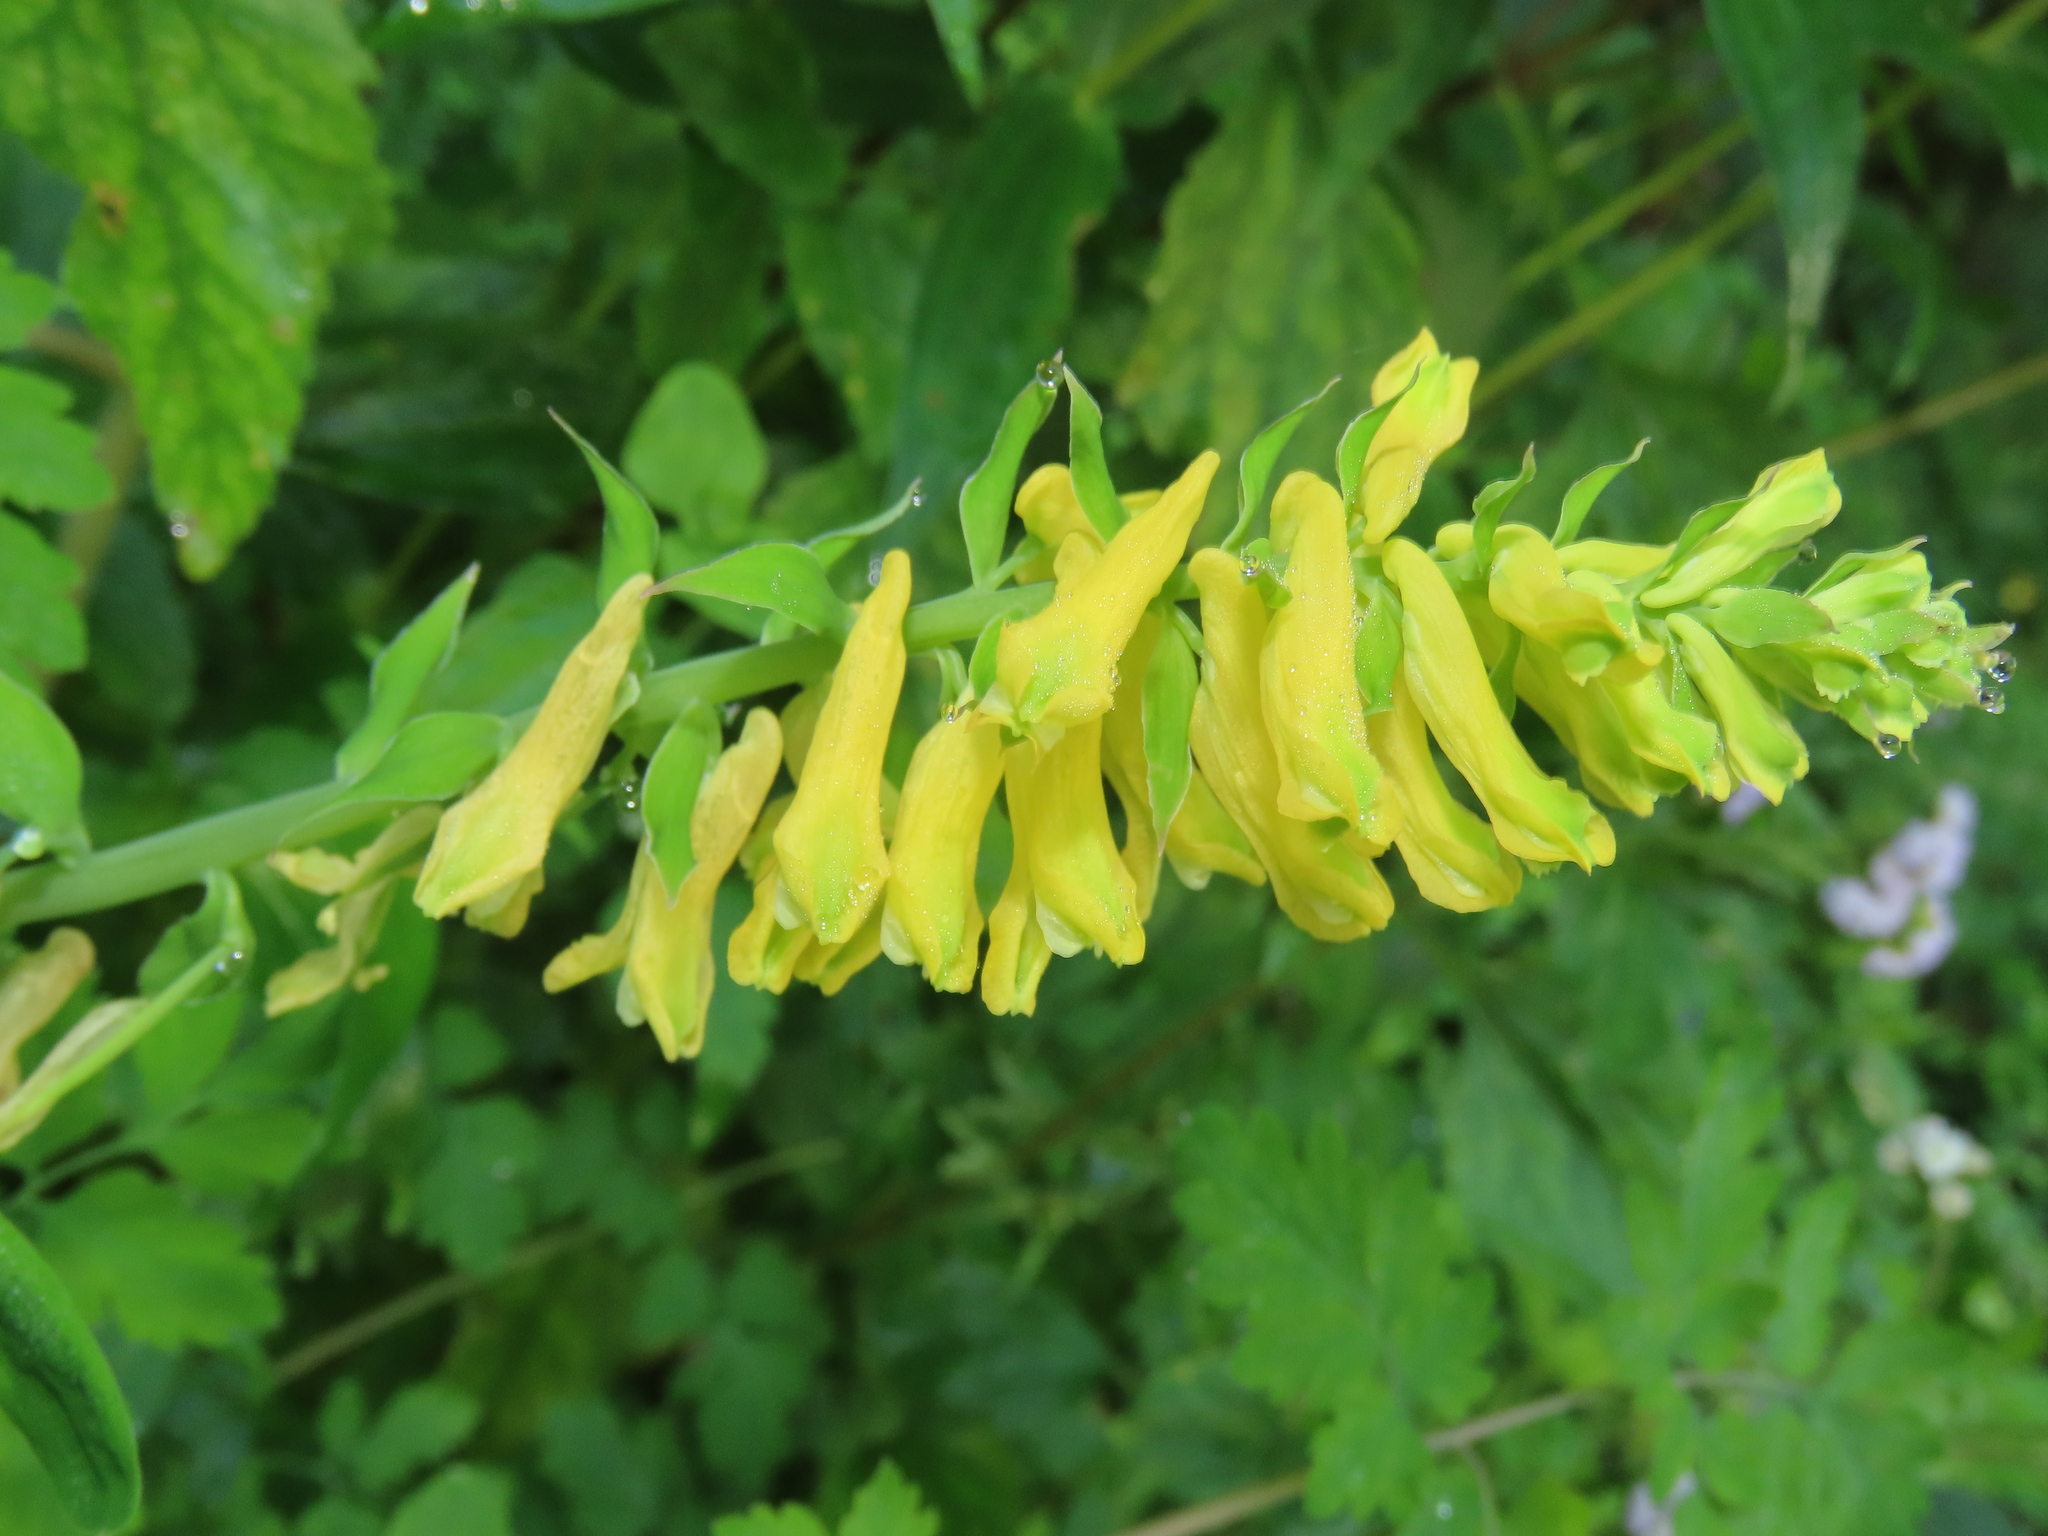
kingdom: Plantae
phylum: Tracheophyta
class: Magnoliopsida
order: Ranunculales
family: Papaveraceae
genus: Corydalis
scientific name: Corydalis balansae
